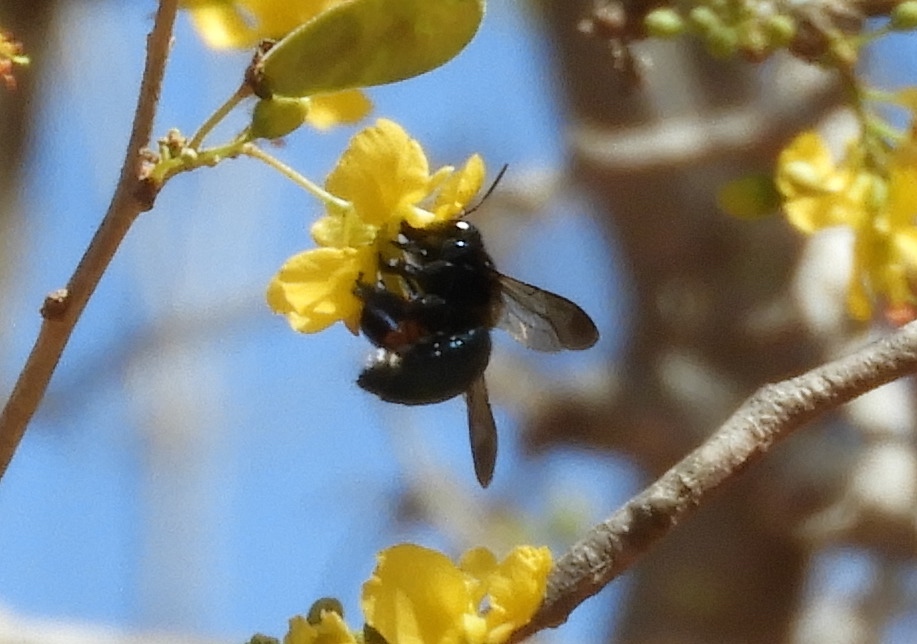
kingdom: Animalia
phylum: Arthropoda
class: Insecta
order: Hymenoptera
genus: Schonnherria
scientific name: Schonnherria
